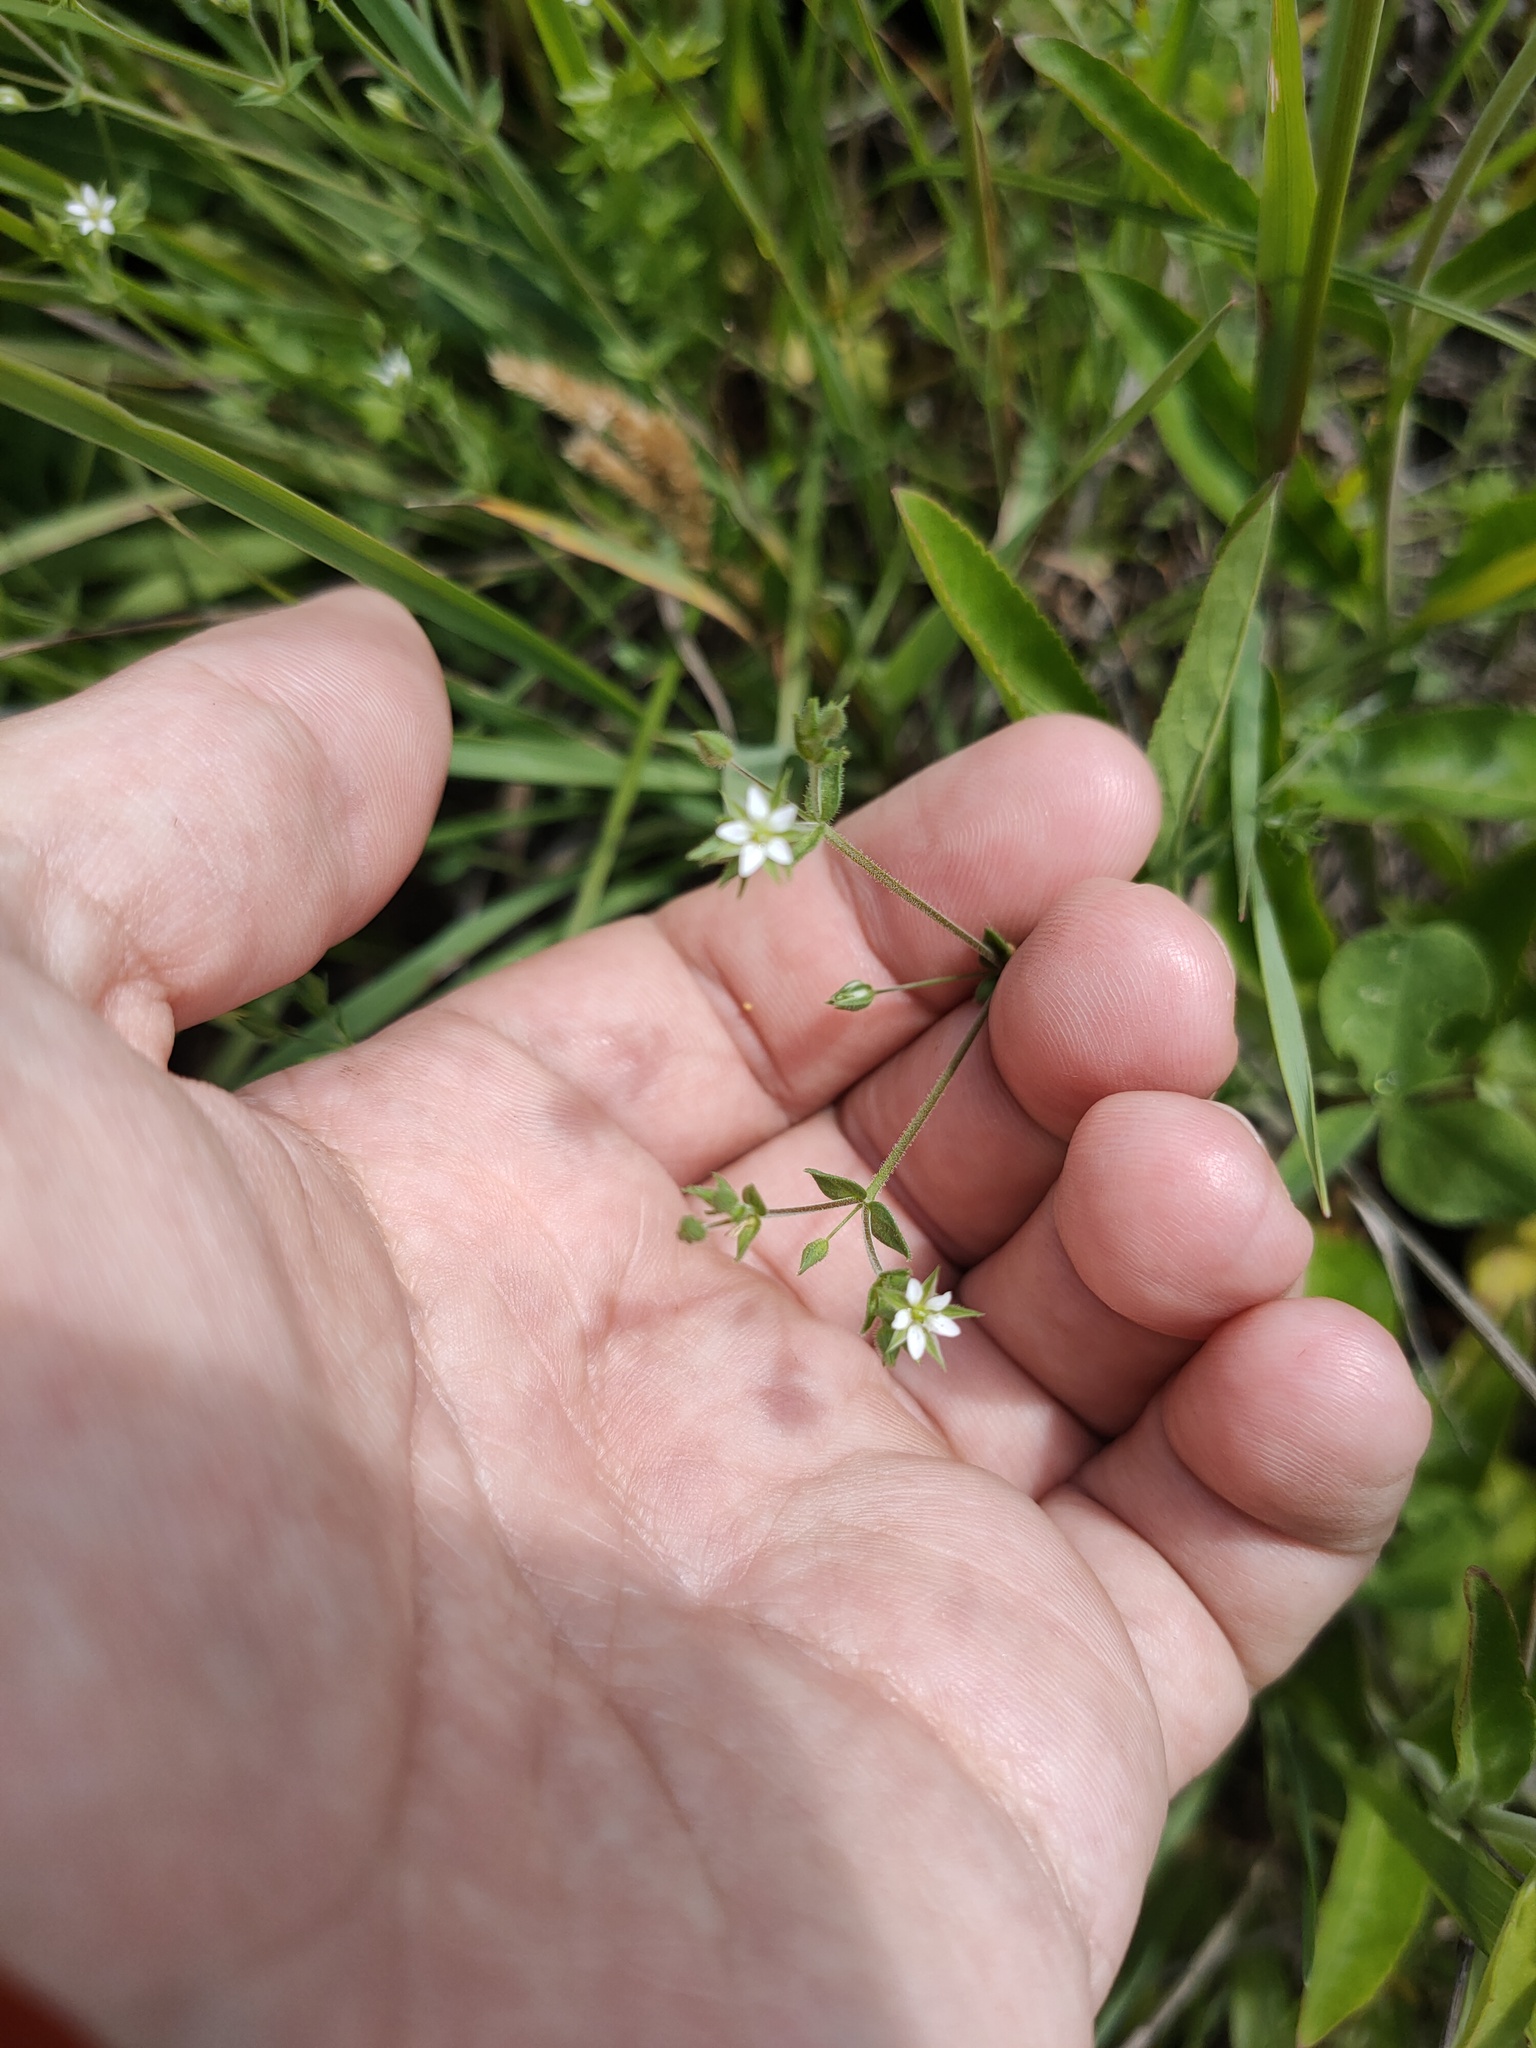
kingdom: Plantae
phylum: Tracheophyta
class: Magnoliopsida
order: Caryophyllales
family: Caryophyllaceae
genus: Arenaria
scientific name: Arenaria serpyllifolia
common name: Thyme-leaved sandwort
